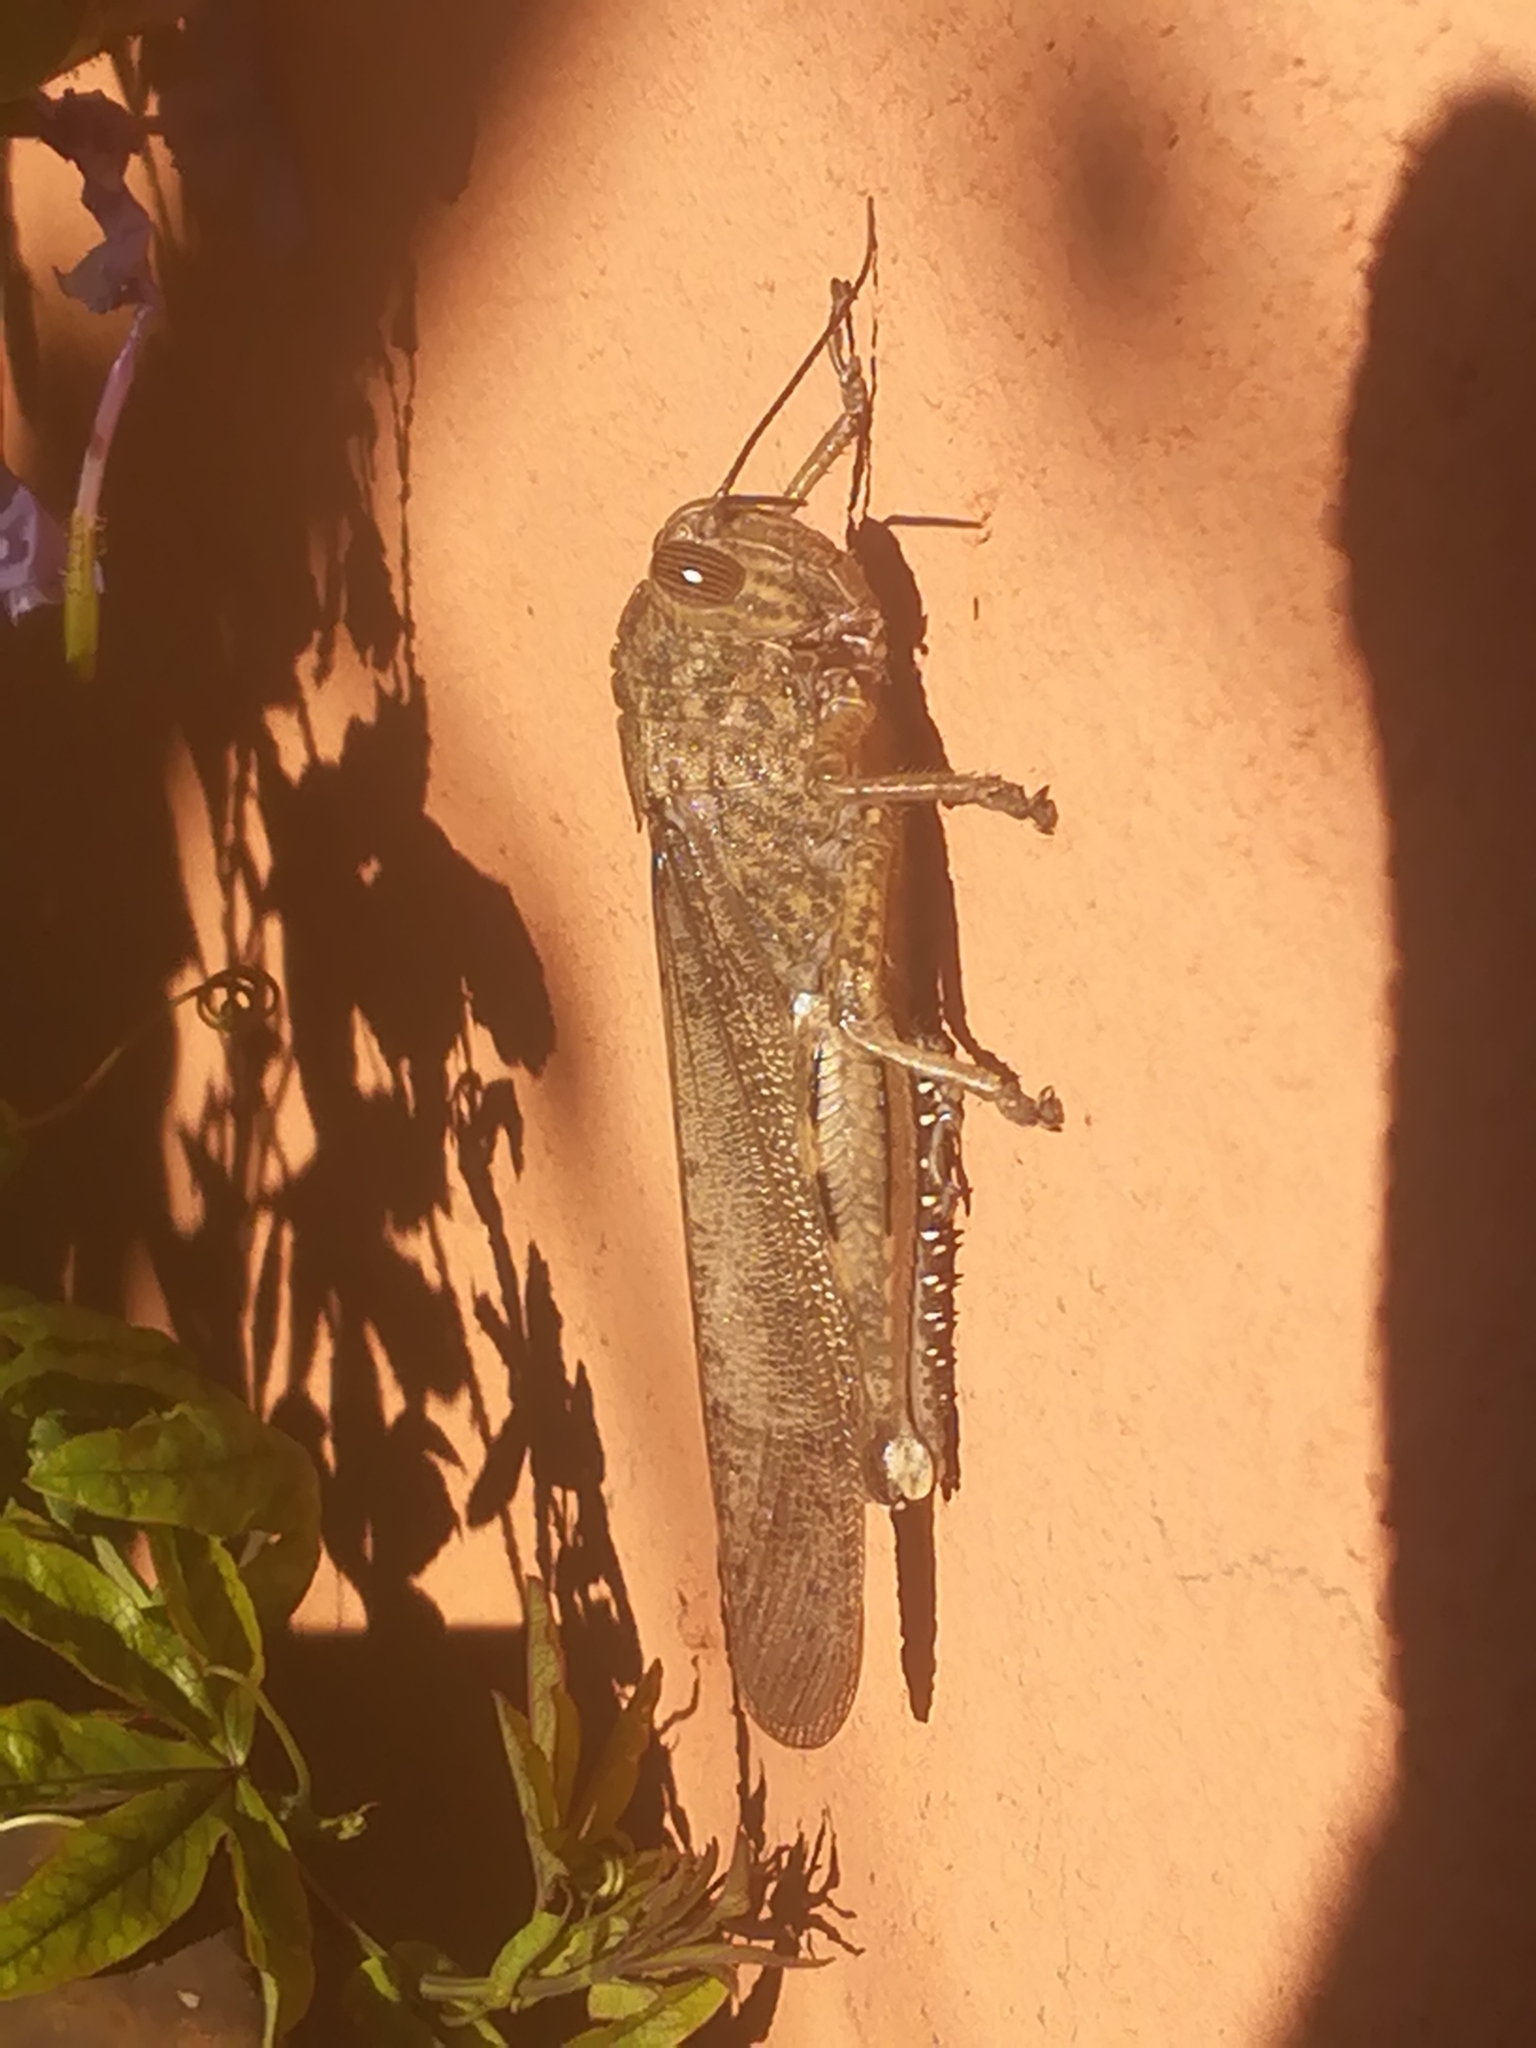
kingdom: Animalia
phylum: Arthropoda
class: Insecta
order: Orthoptera
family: Acrididae
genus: Anacridium
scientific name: Anacridium aegyptium
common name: Egyptian grasshopper
